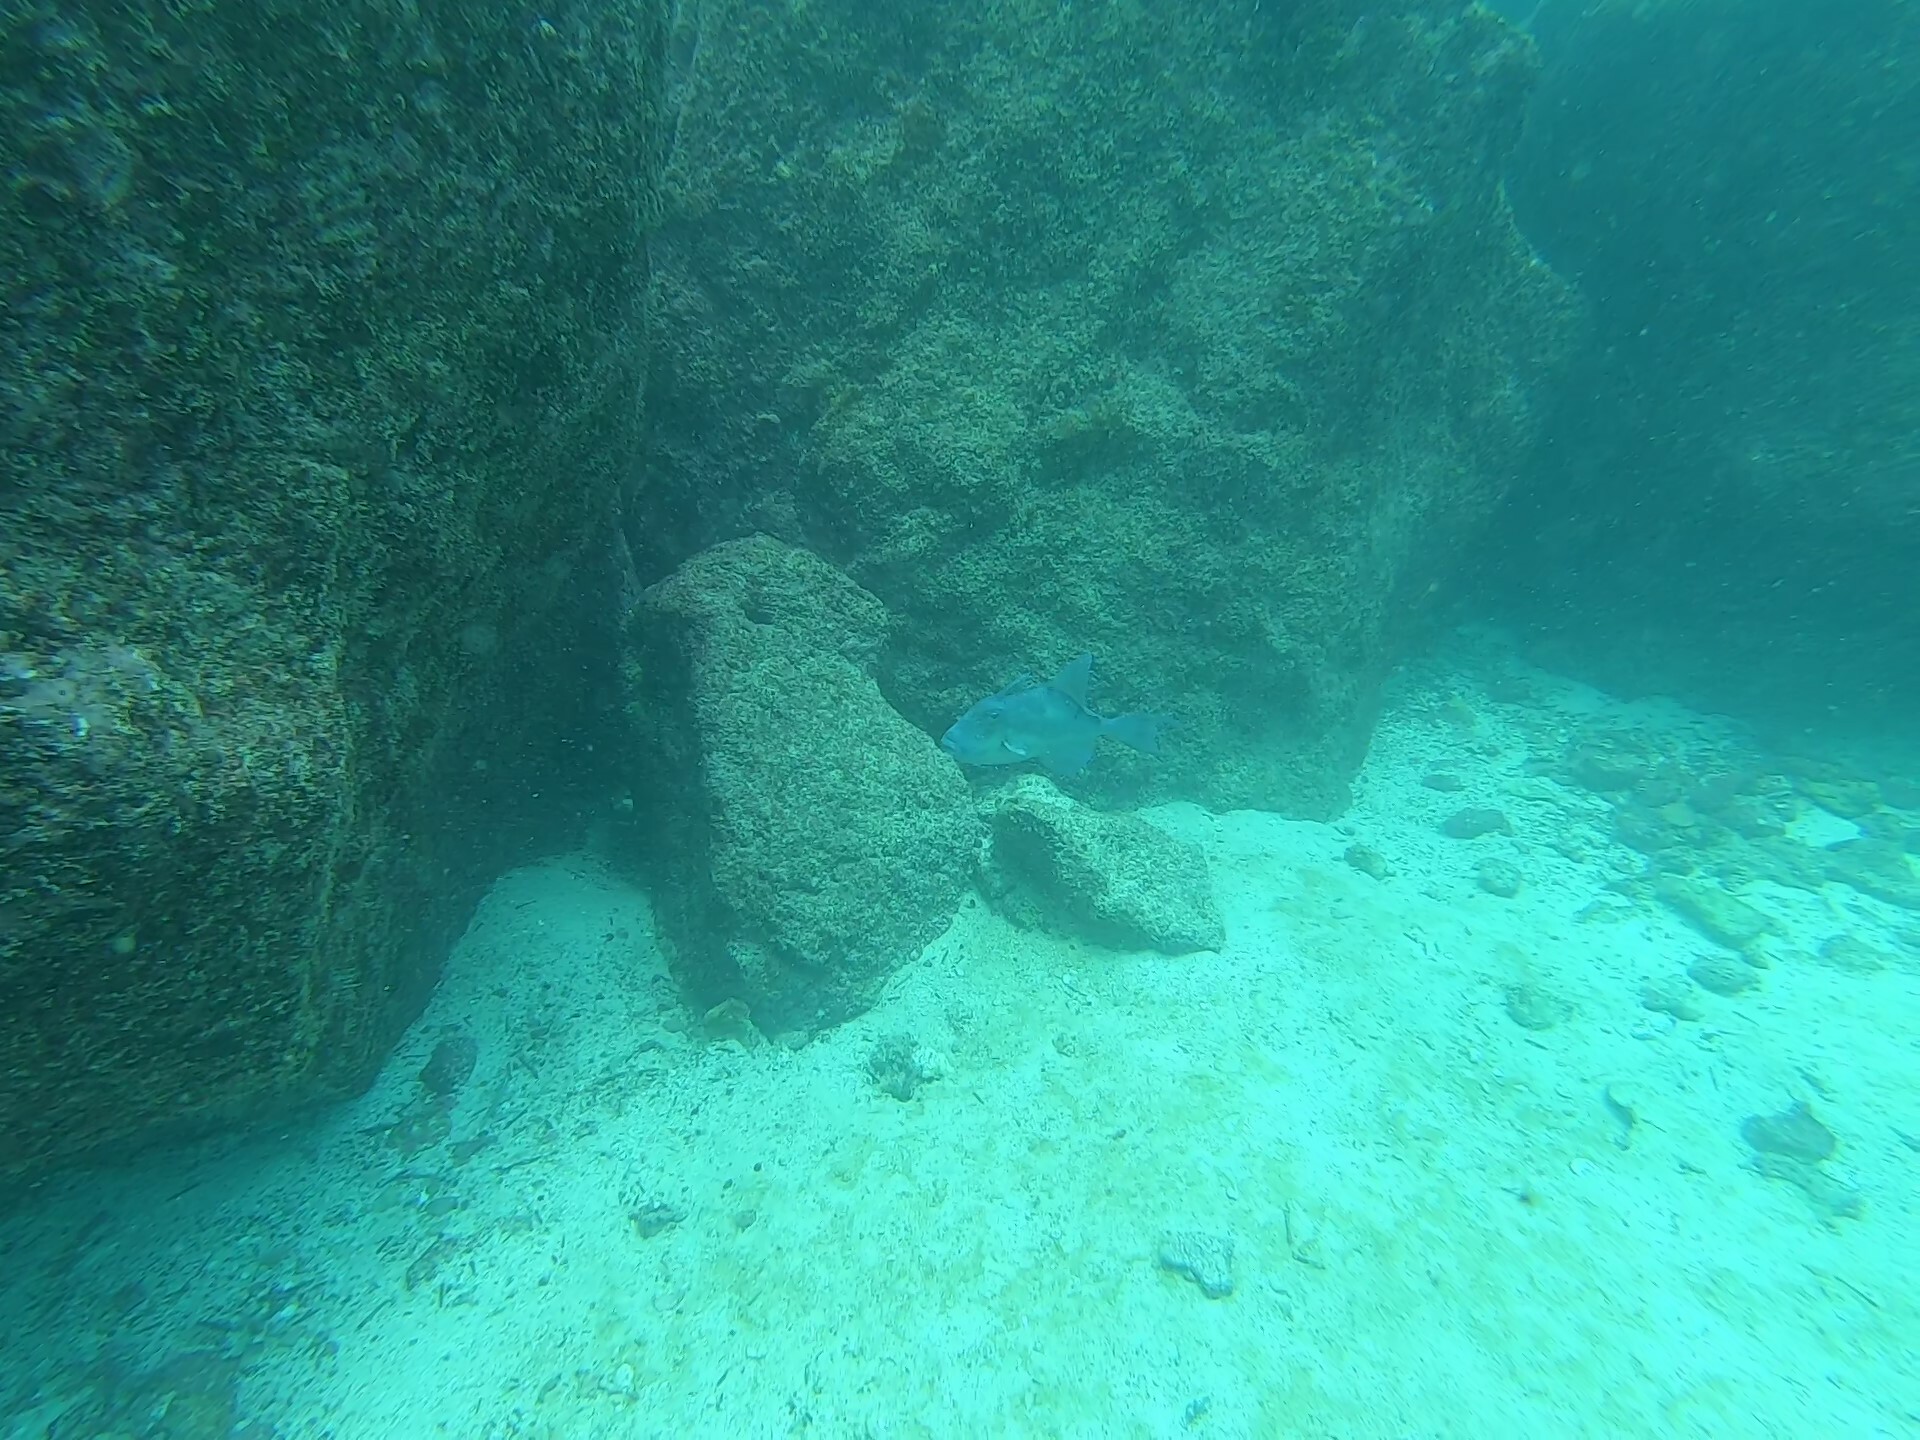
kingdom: Animalia
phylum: Chordata
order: Tetraodontiformes
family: Balistidae
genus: Balistes
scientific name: Balistes polylepis
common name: Finescale triggerfish
